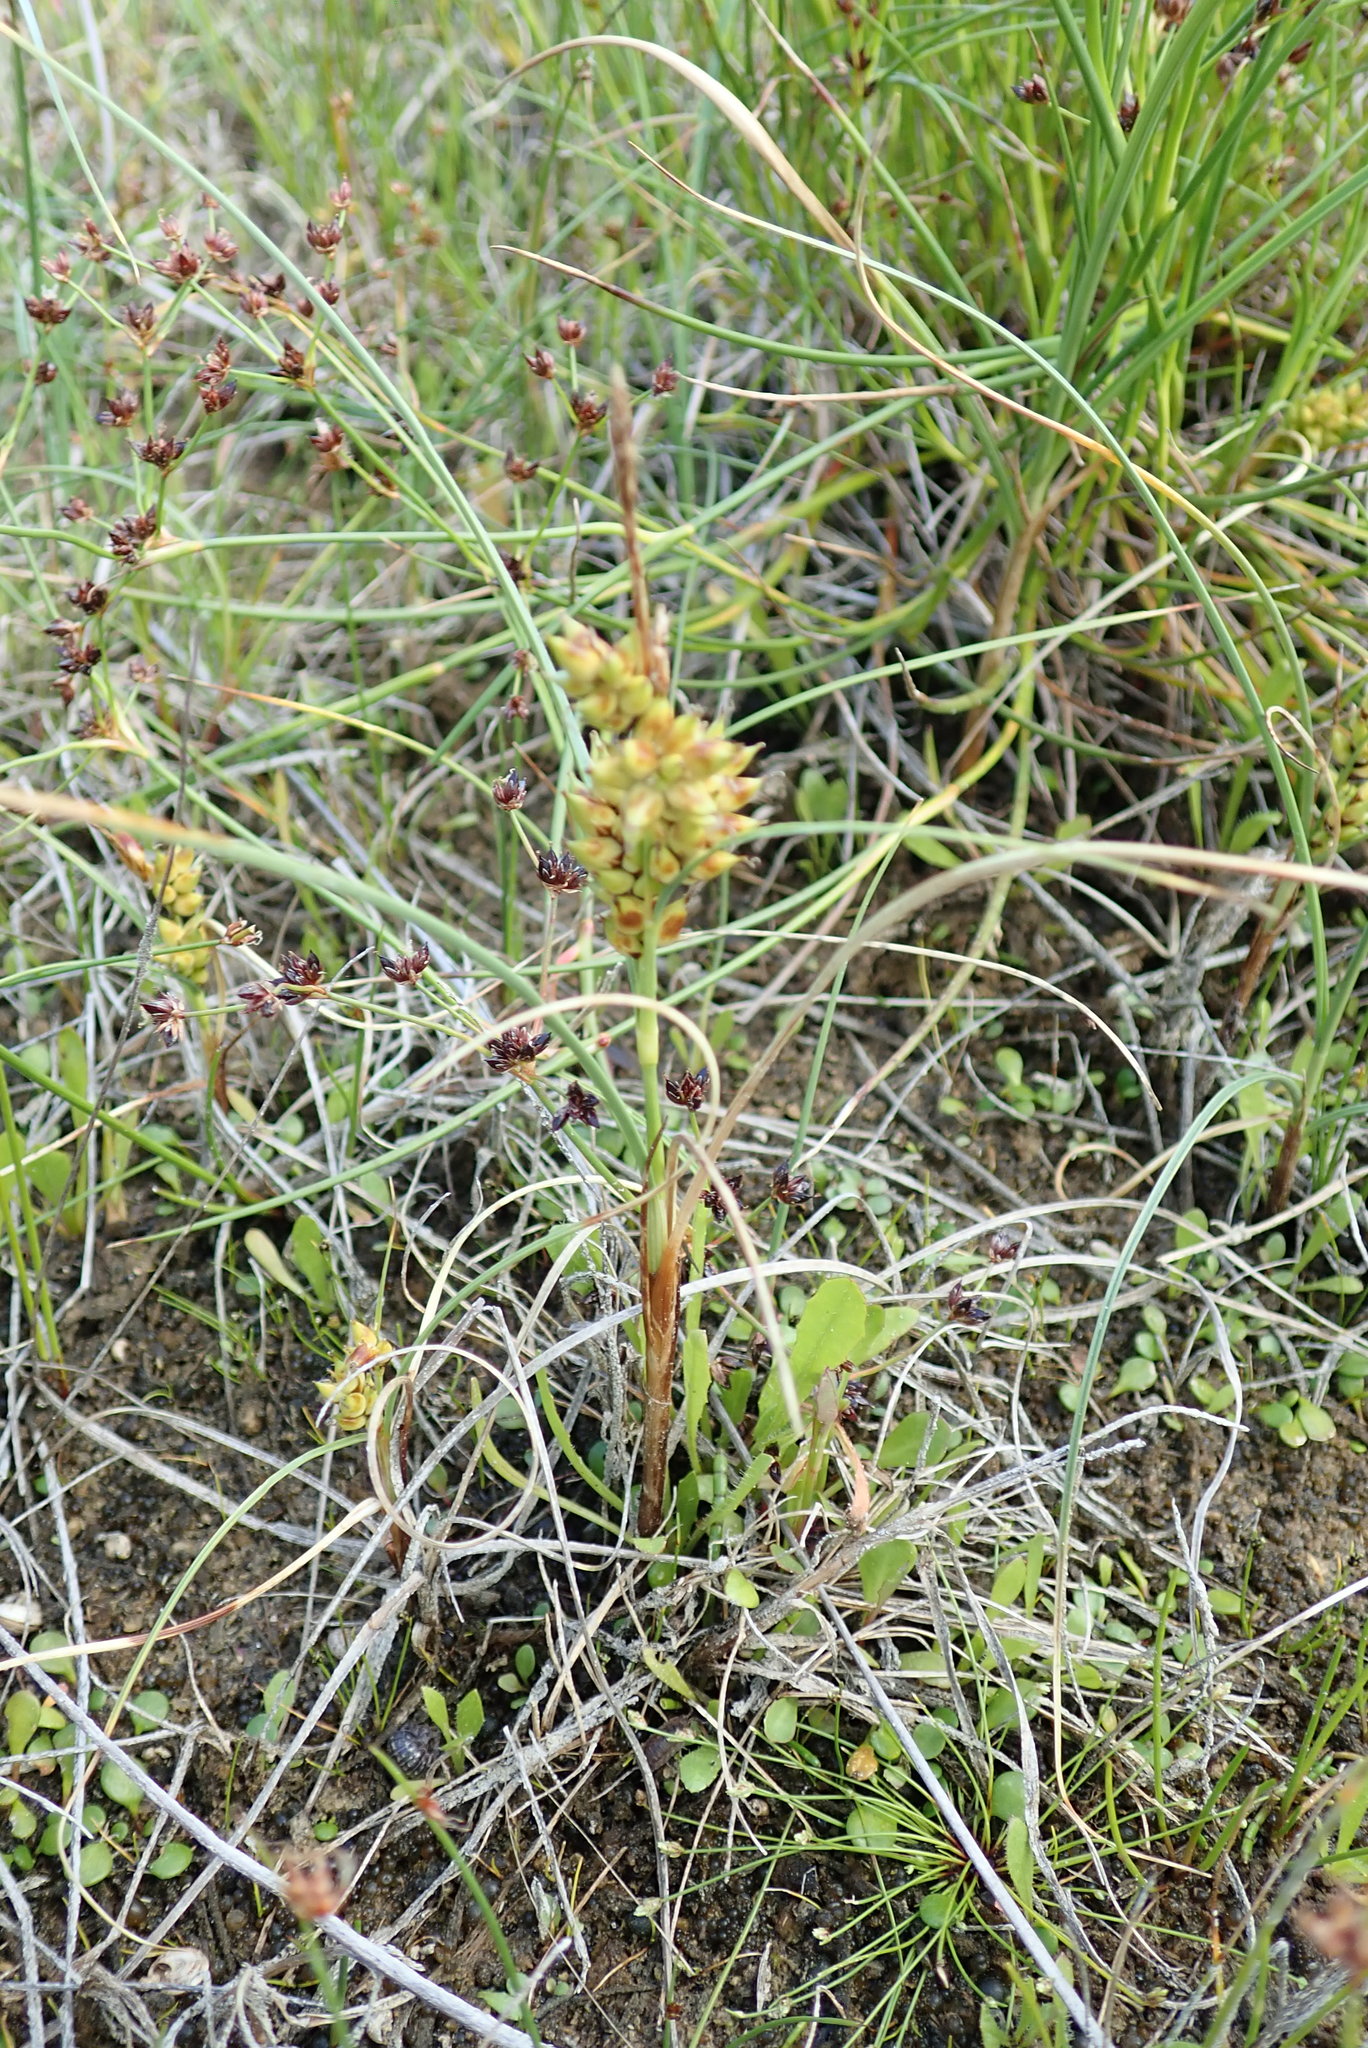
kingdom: Plantae
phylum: Tracheophyta
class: Liliopsida
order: Poales
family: Cyperaceae
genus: Carex
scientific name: Carex pumila
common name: Dwarf sedge
